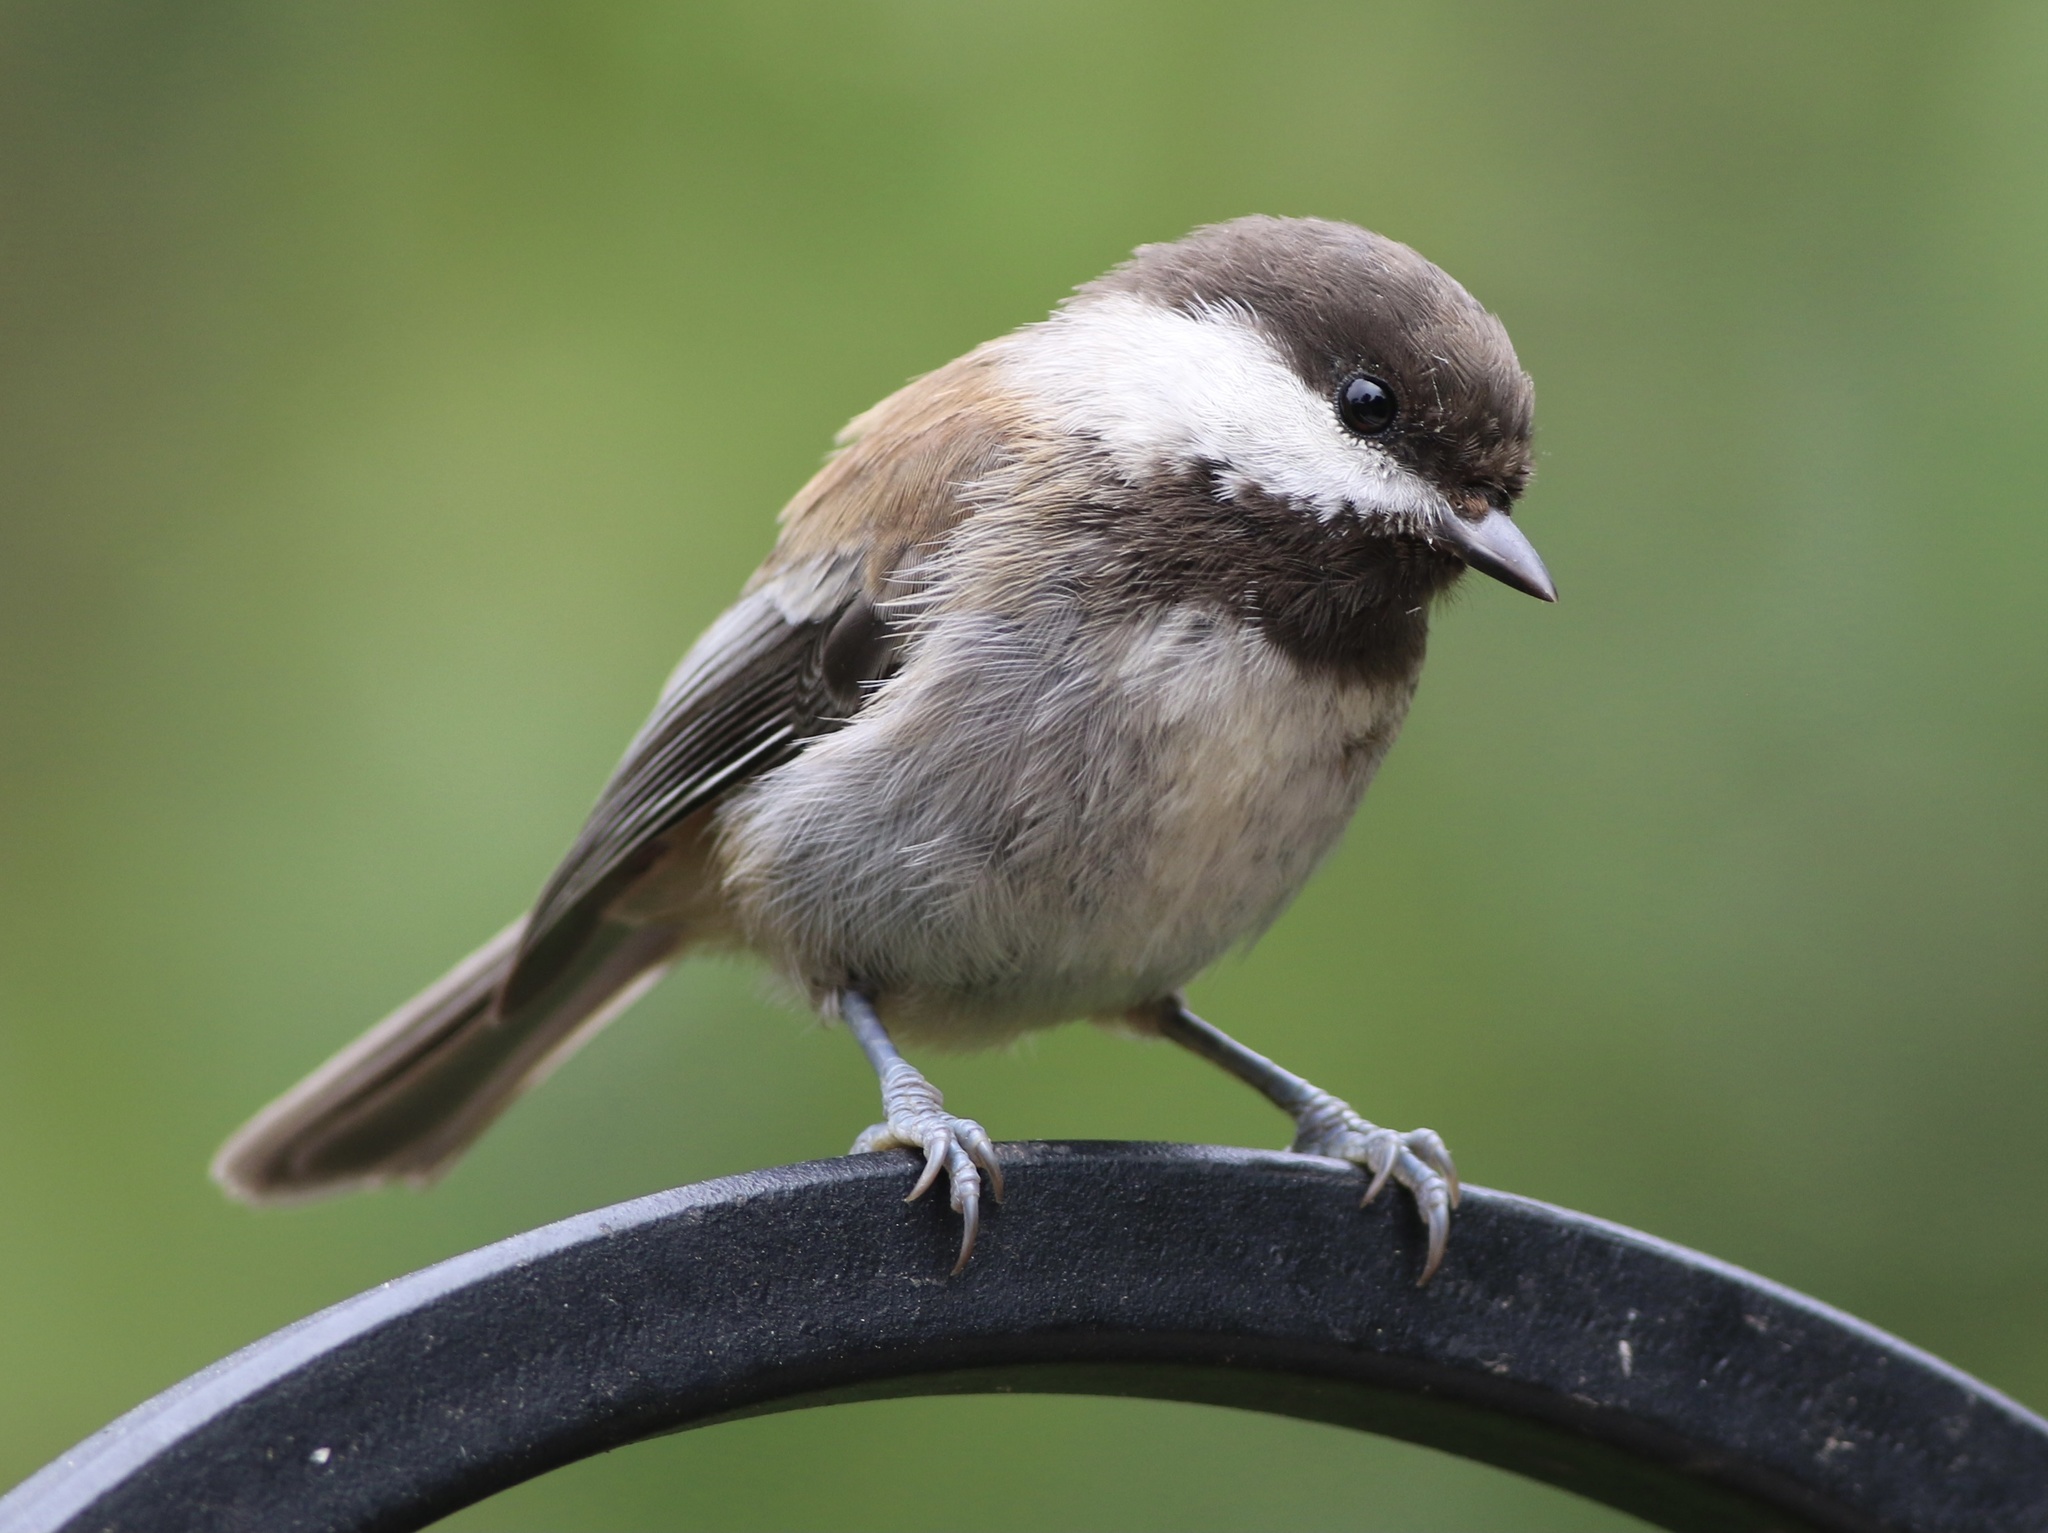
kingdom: Animalia
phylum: Chordata
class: Aves
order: Passeriformes
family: Paridae
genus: Poecile
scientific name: Poecile rufescens
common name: Chestnut-backed chickadee
